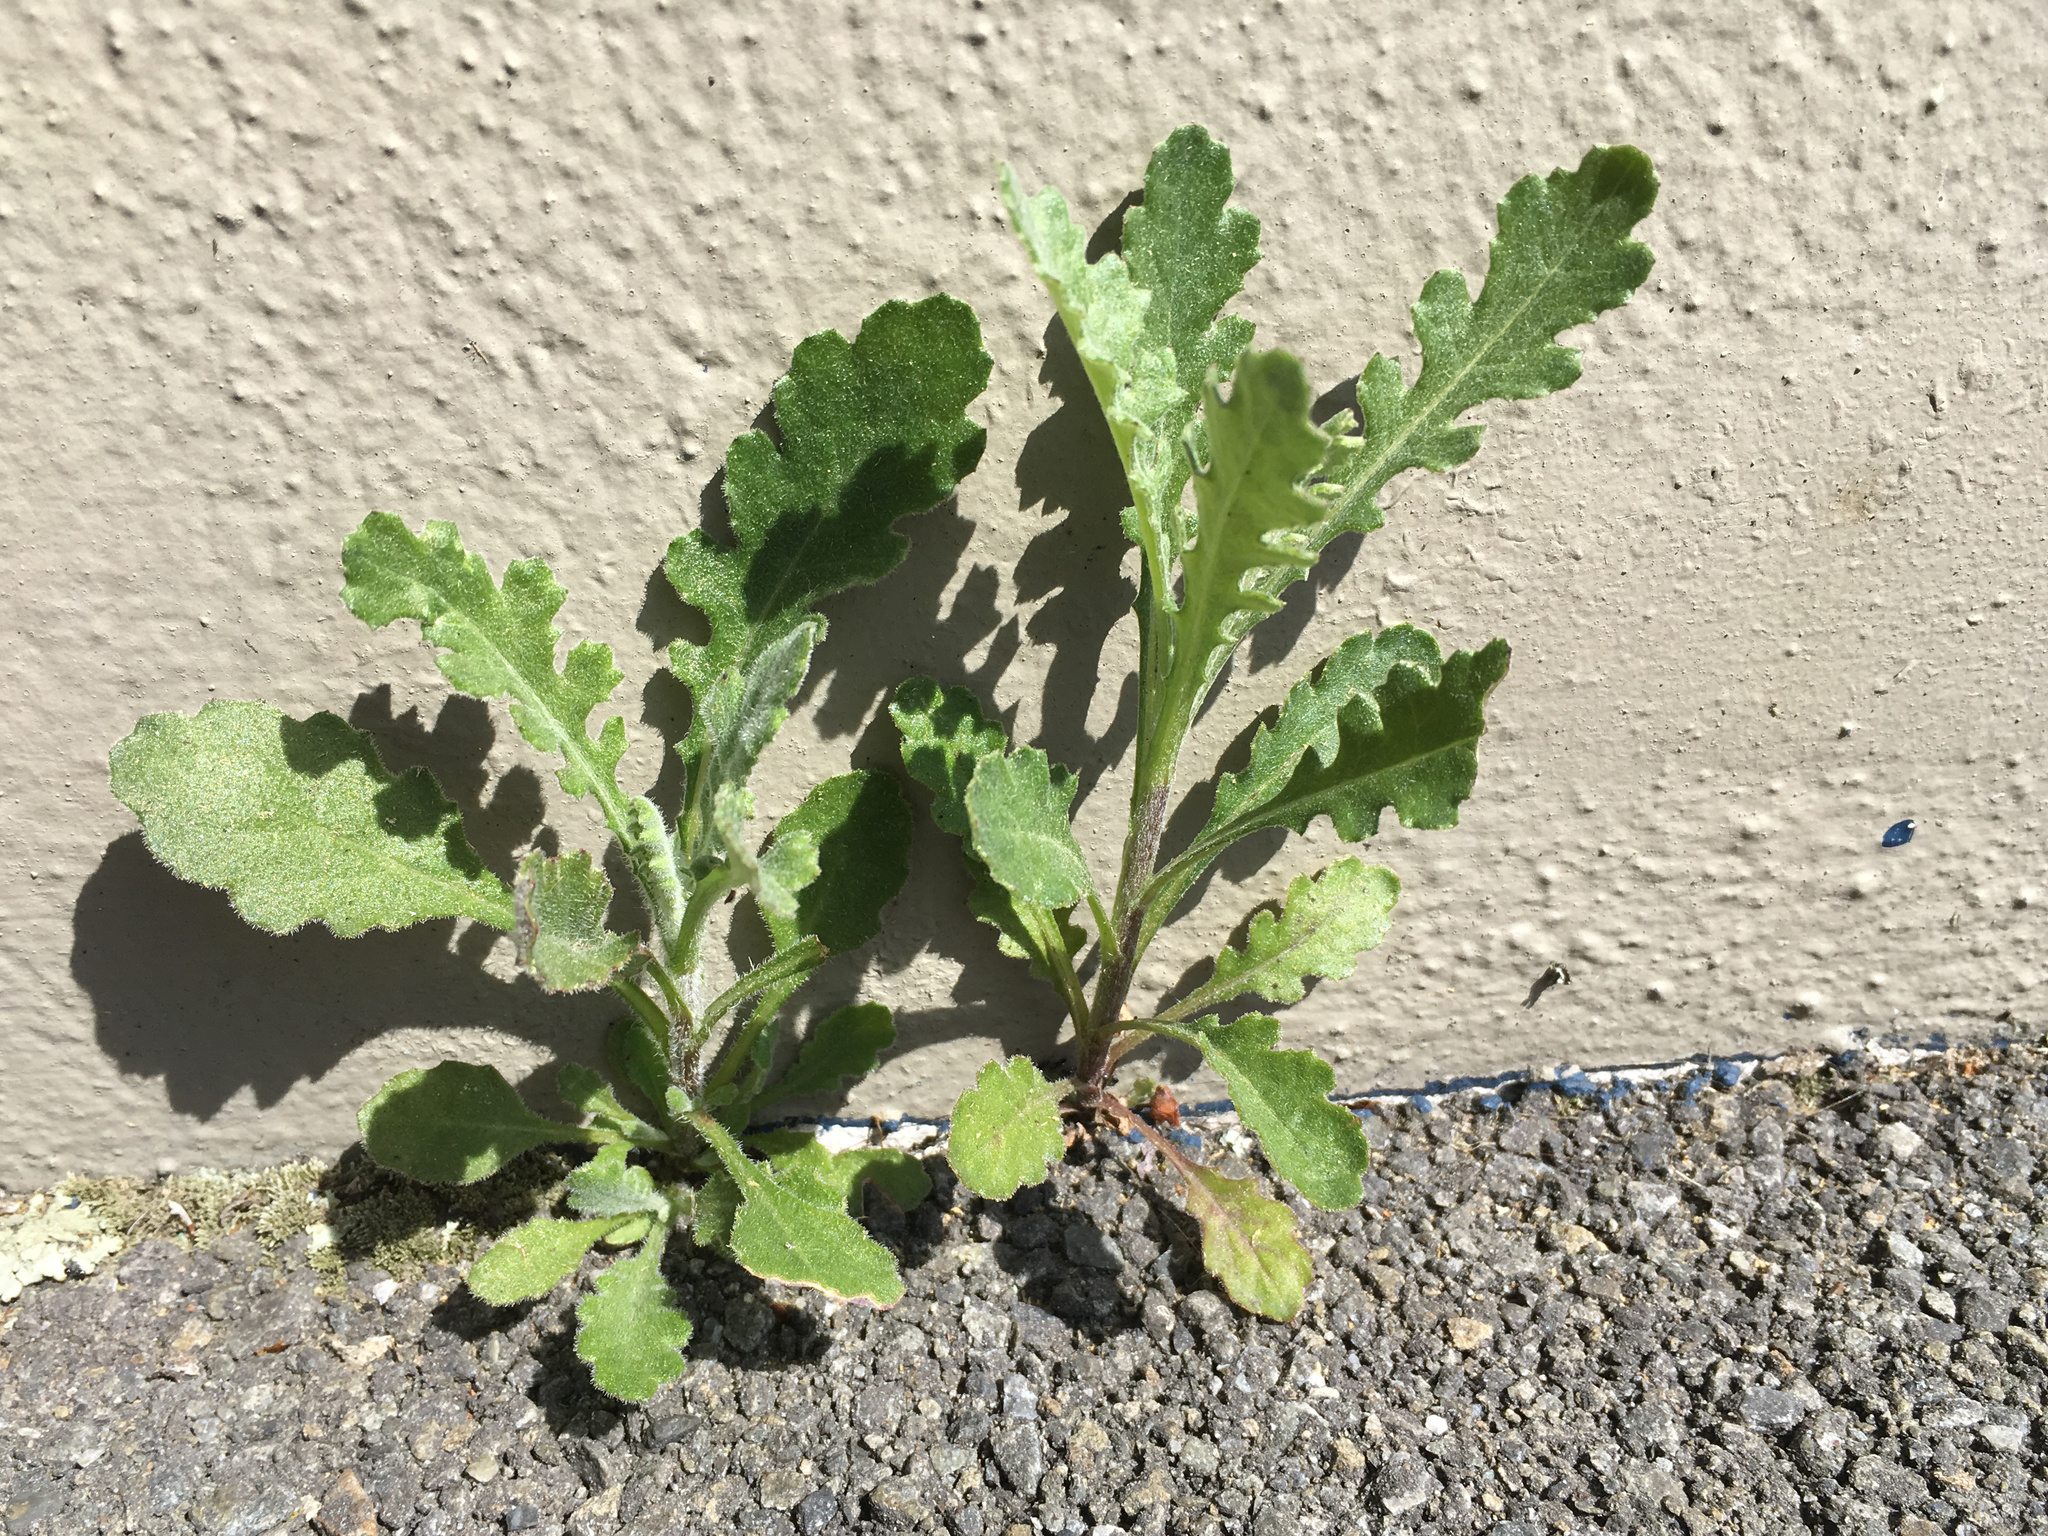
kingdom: Plantae
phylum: Tracheophyta
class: Magnoliopsida
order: Asterales
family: Asteraceae
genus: Senecio
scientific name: Senecio glomeratus
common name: Cutleaf burnweed
